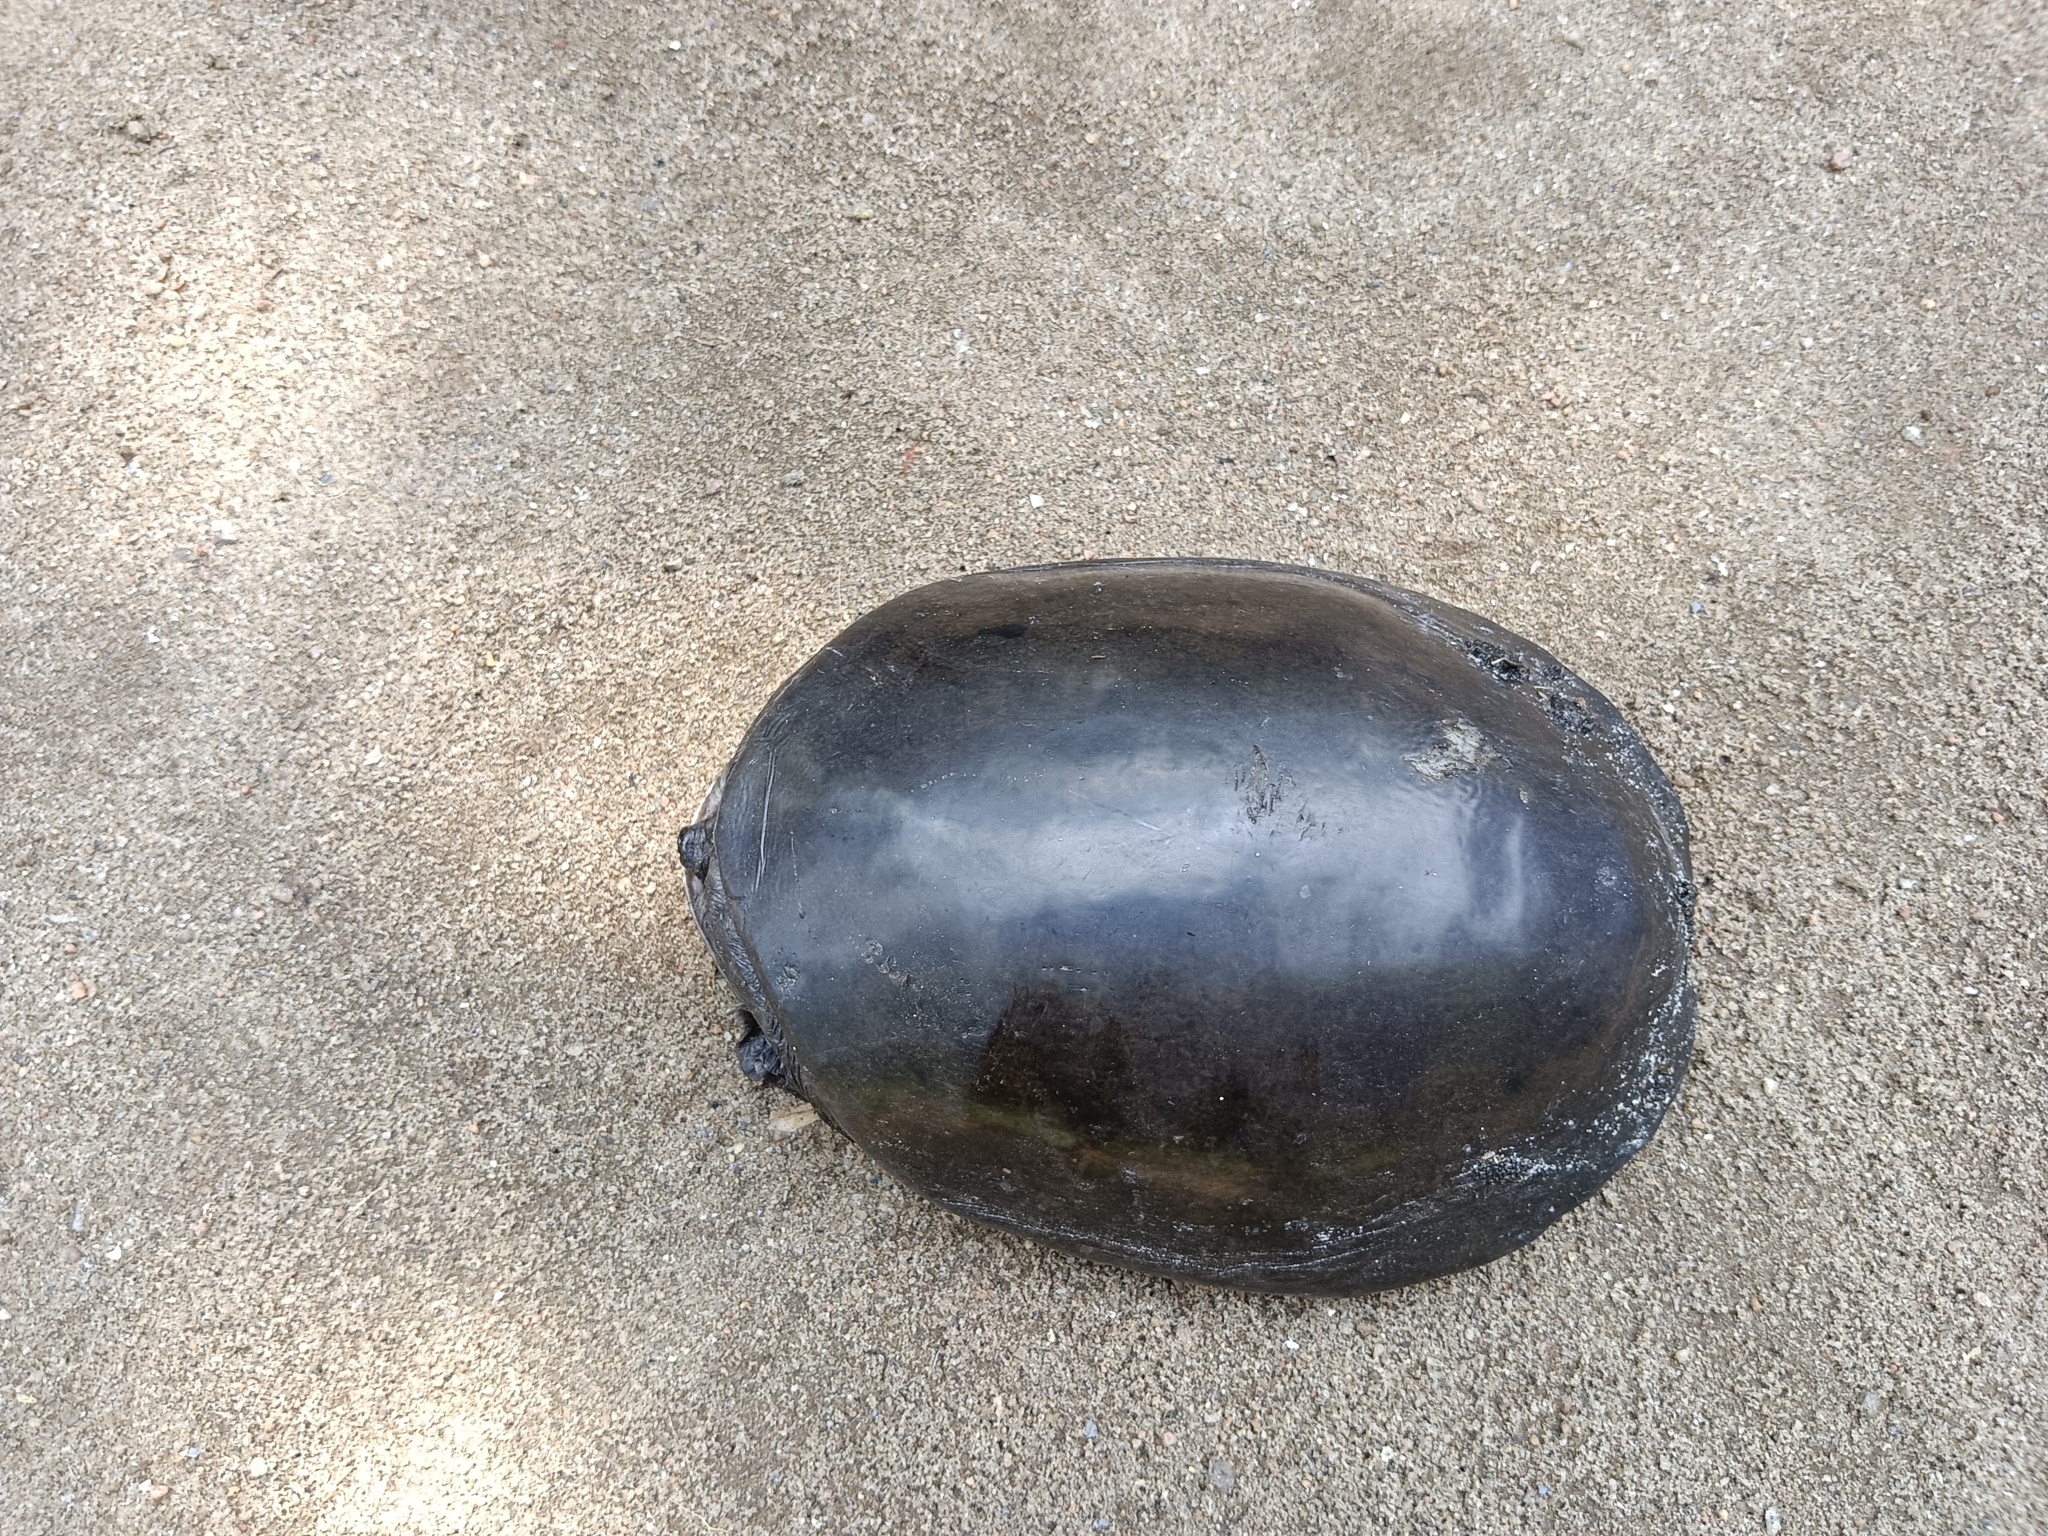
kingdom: Animalia
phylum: Chordata
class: Testudines
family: Trionychidae
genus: Lissemys
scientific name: Lissemys punctata
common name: Indian flap-shelled turtle
